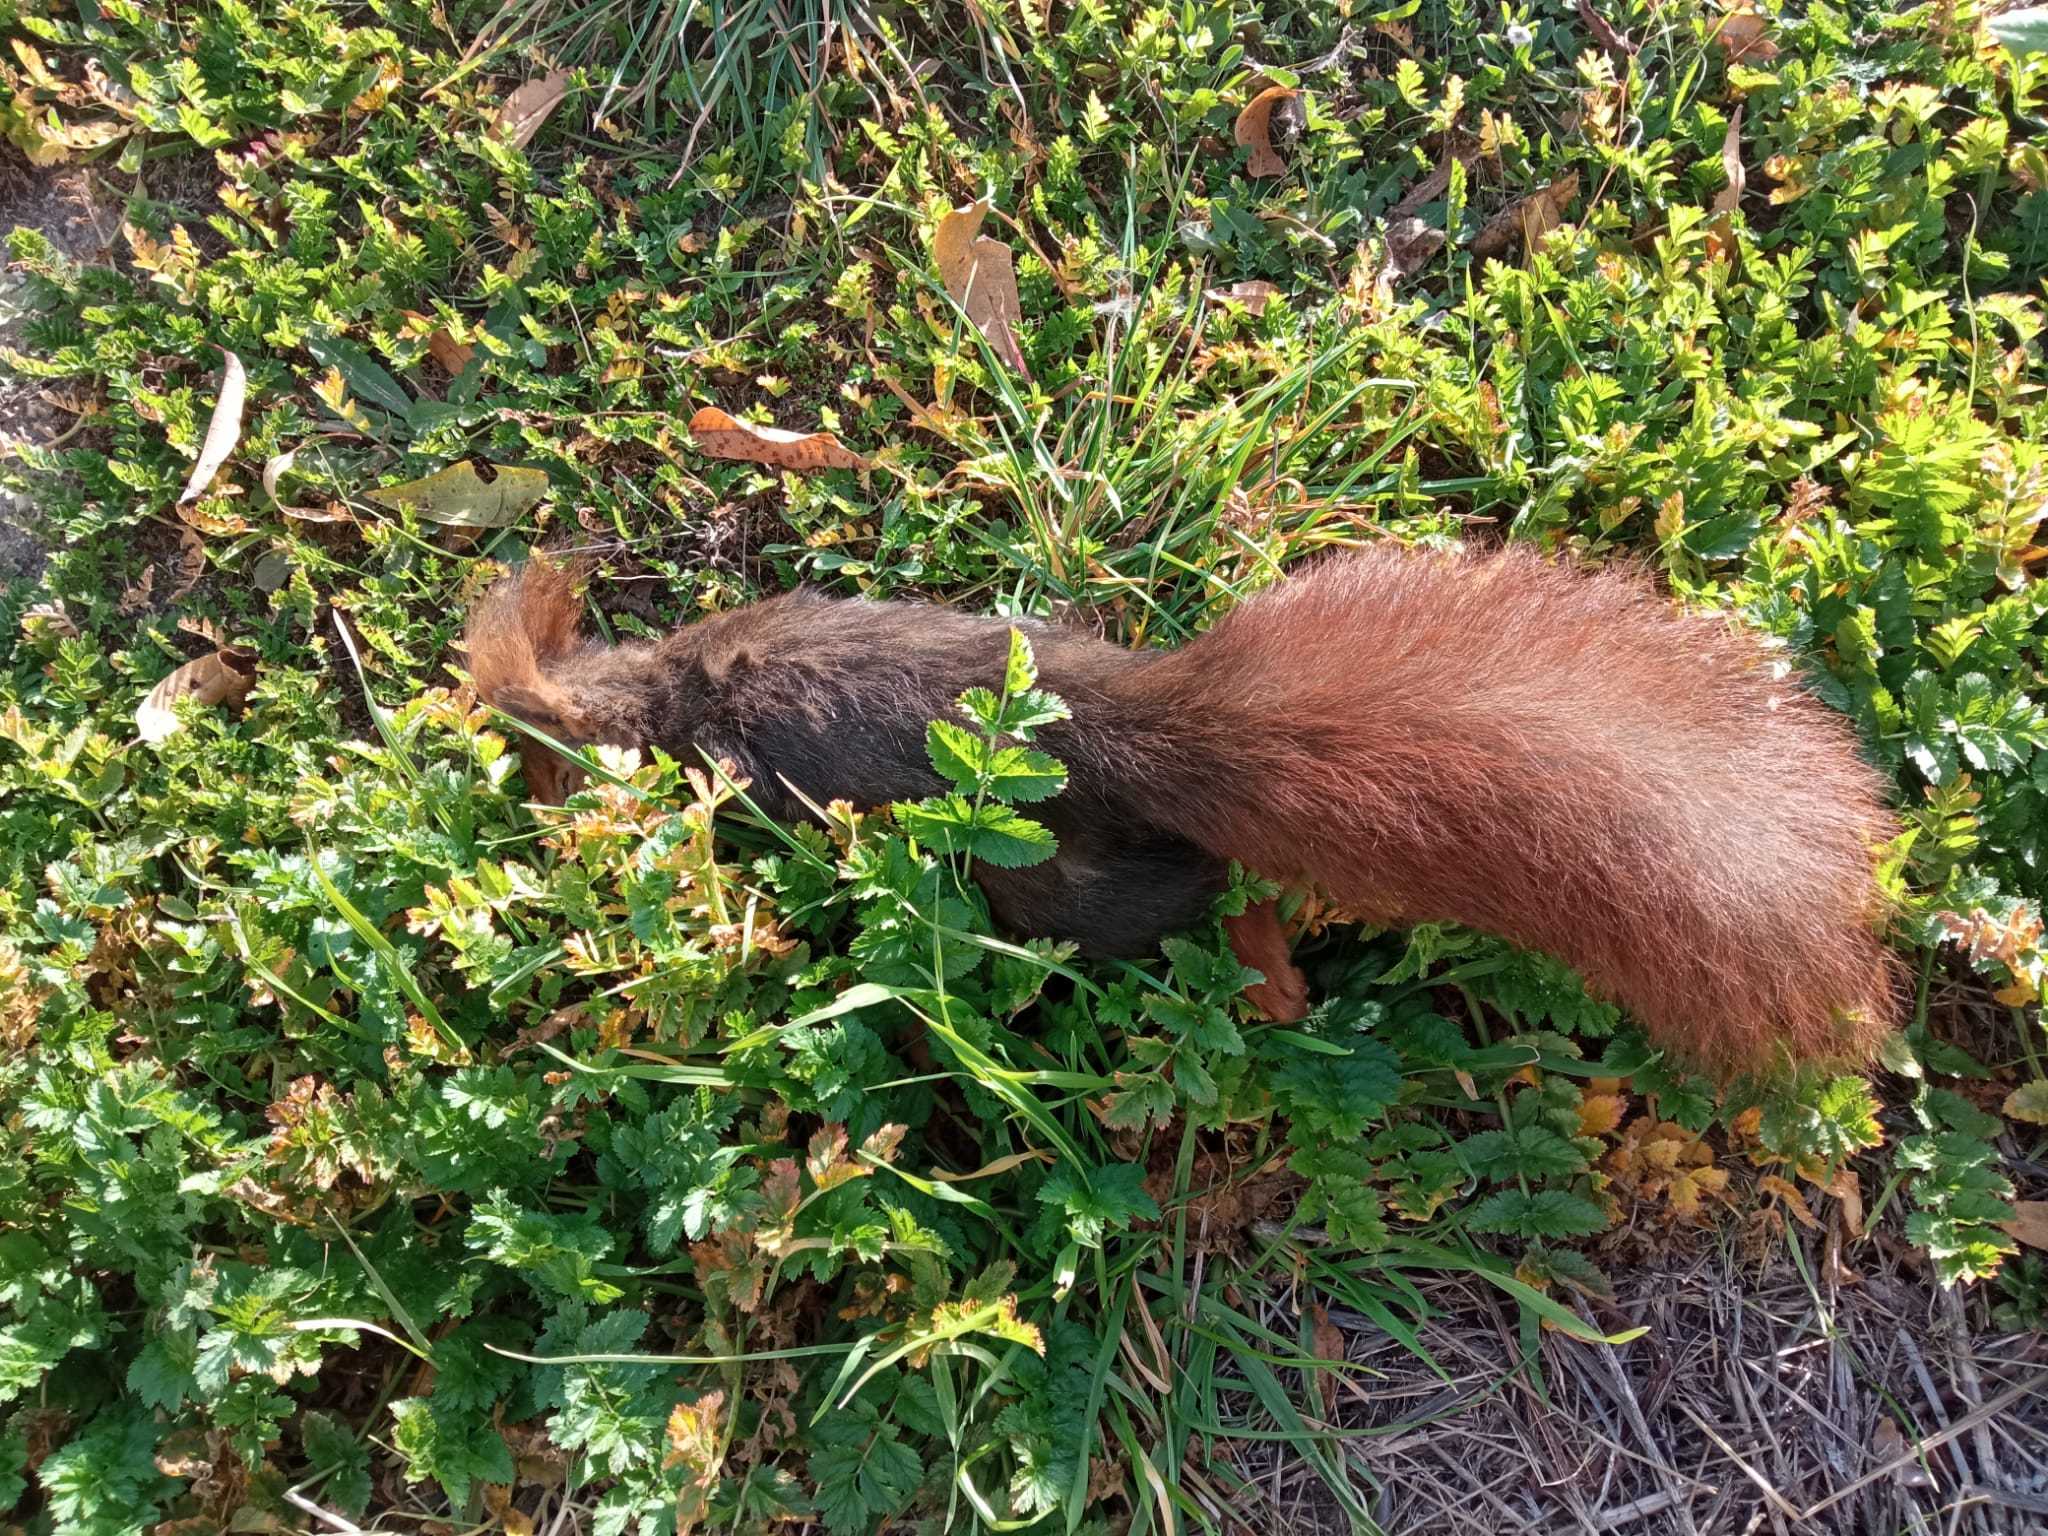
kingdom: Animalia
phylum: Chordata
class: Mammalia
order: Rodentia
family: Sciuridae
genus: Sciurus
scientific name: Sciurus vulgaris
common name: Eurasian red squirrel
